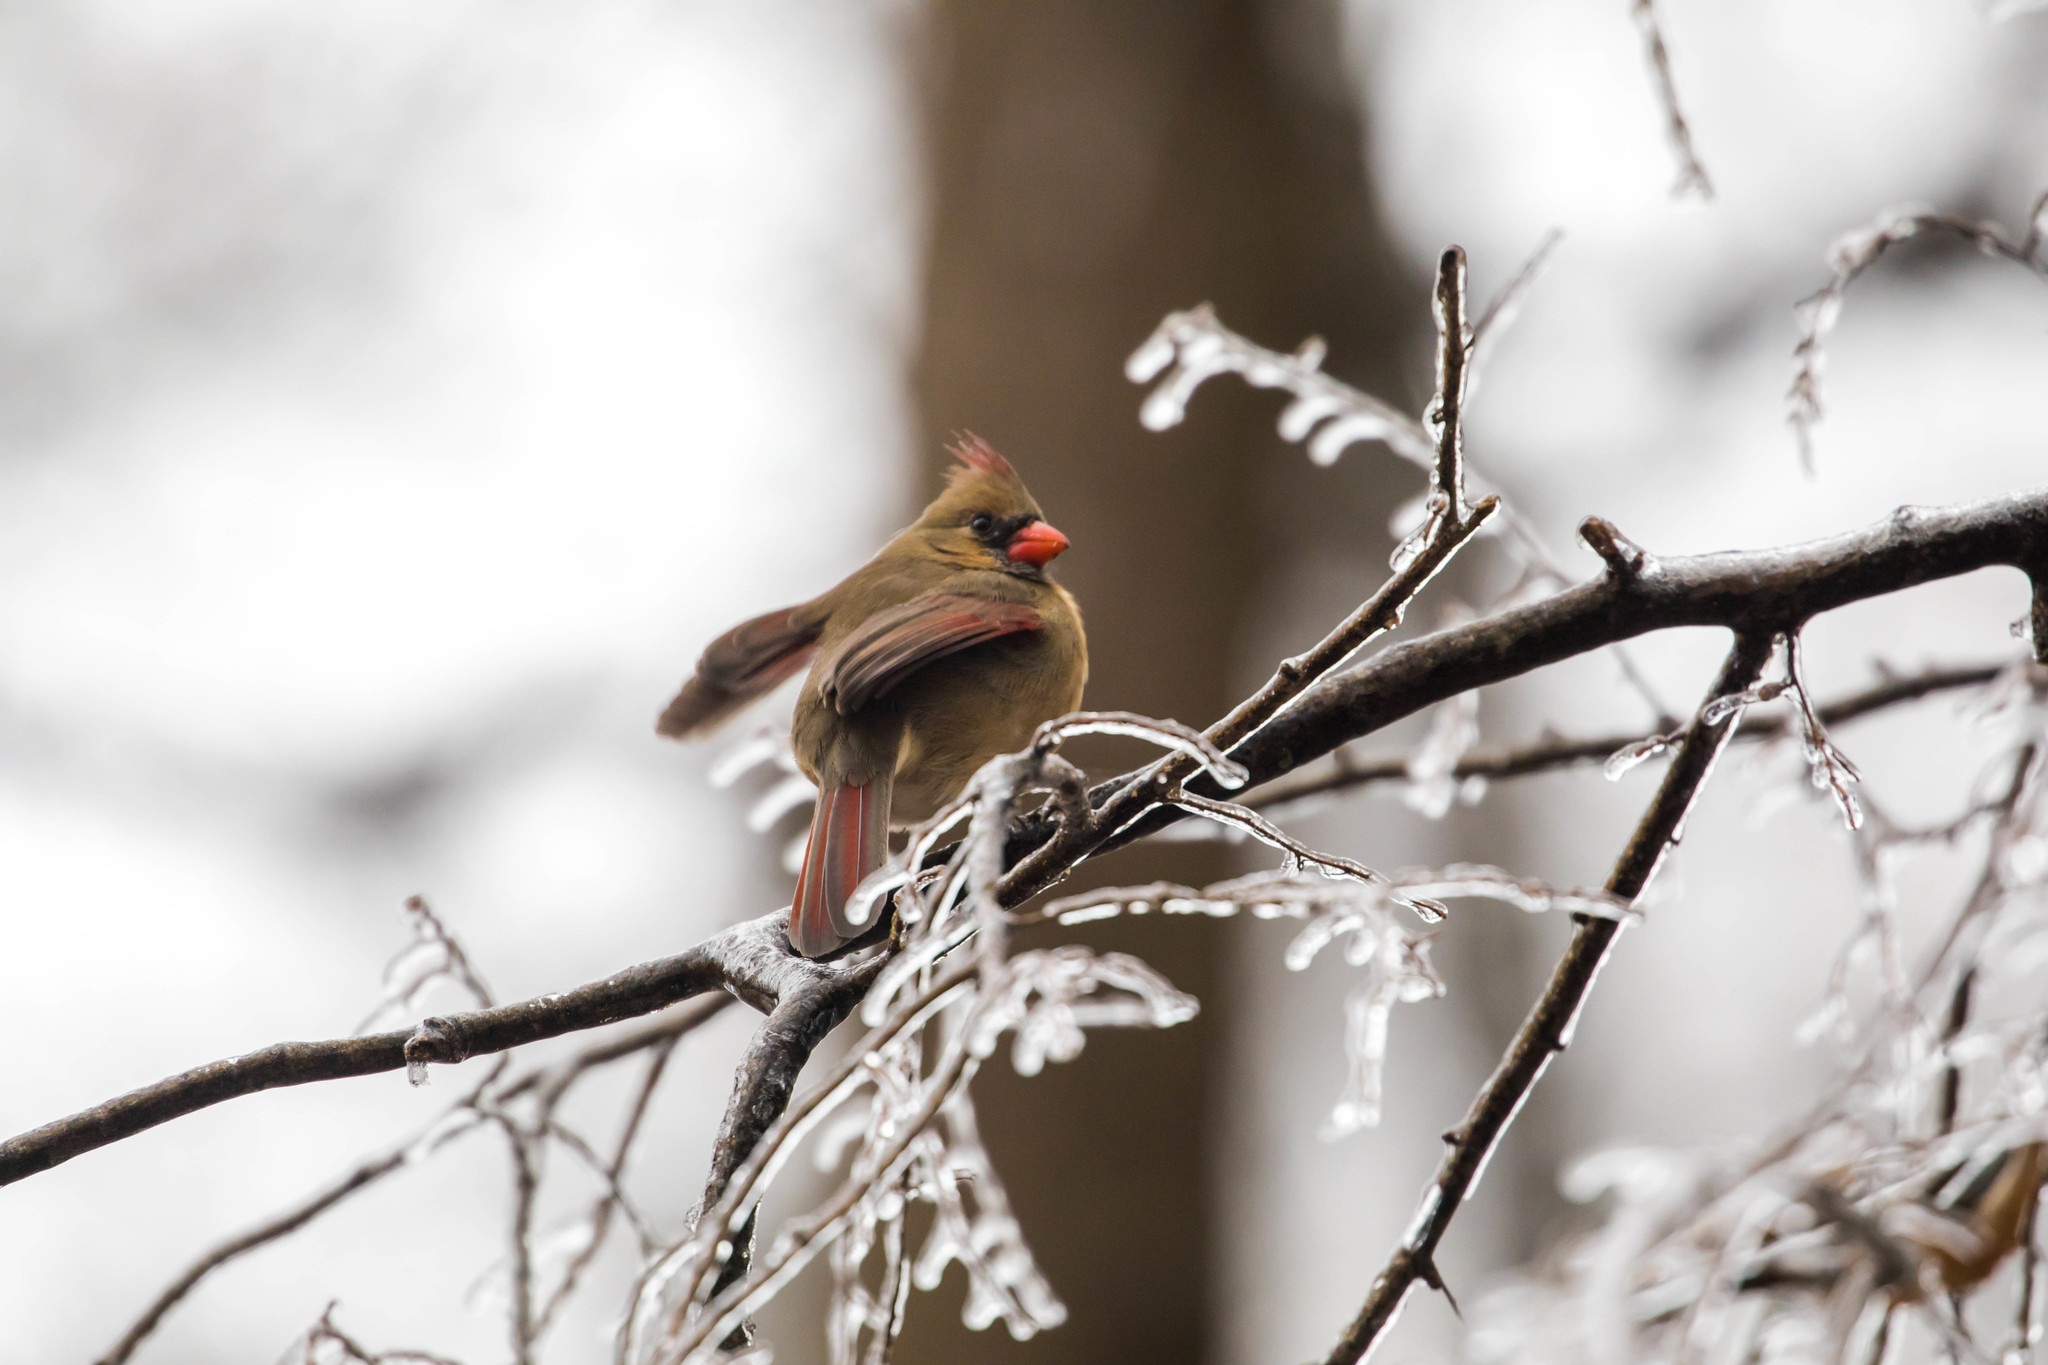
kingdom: Animalia
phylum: Chordata
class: Aves
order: Passeriformes
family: Cardinalidae
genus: Cardinalis
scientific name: Cardinalis cardinalis
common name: Northern cardinal
